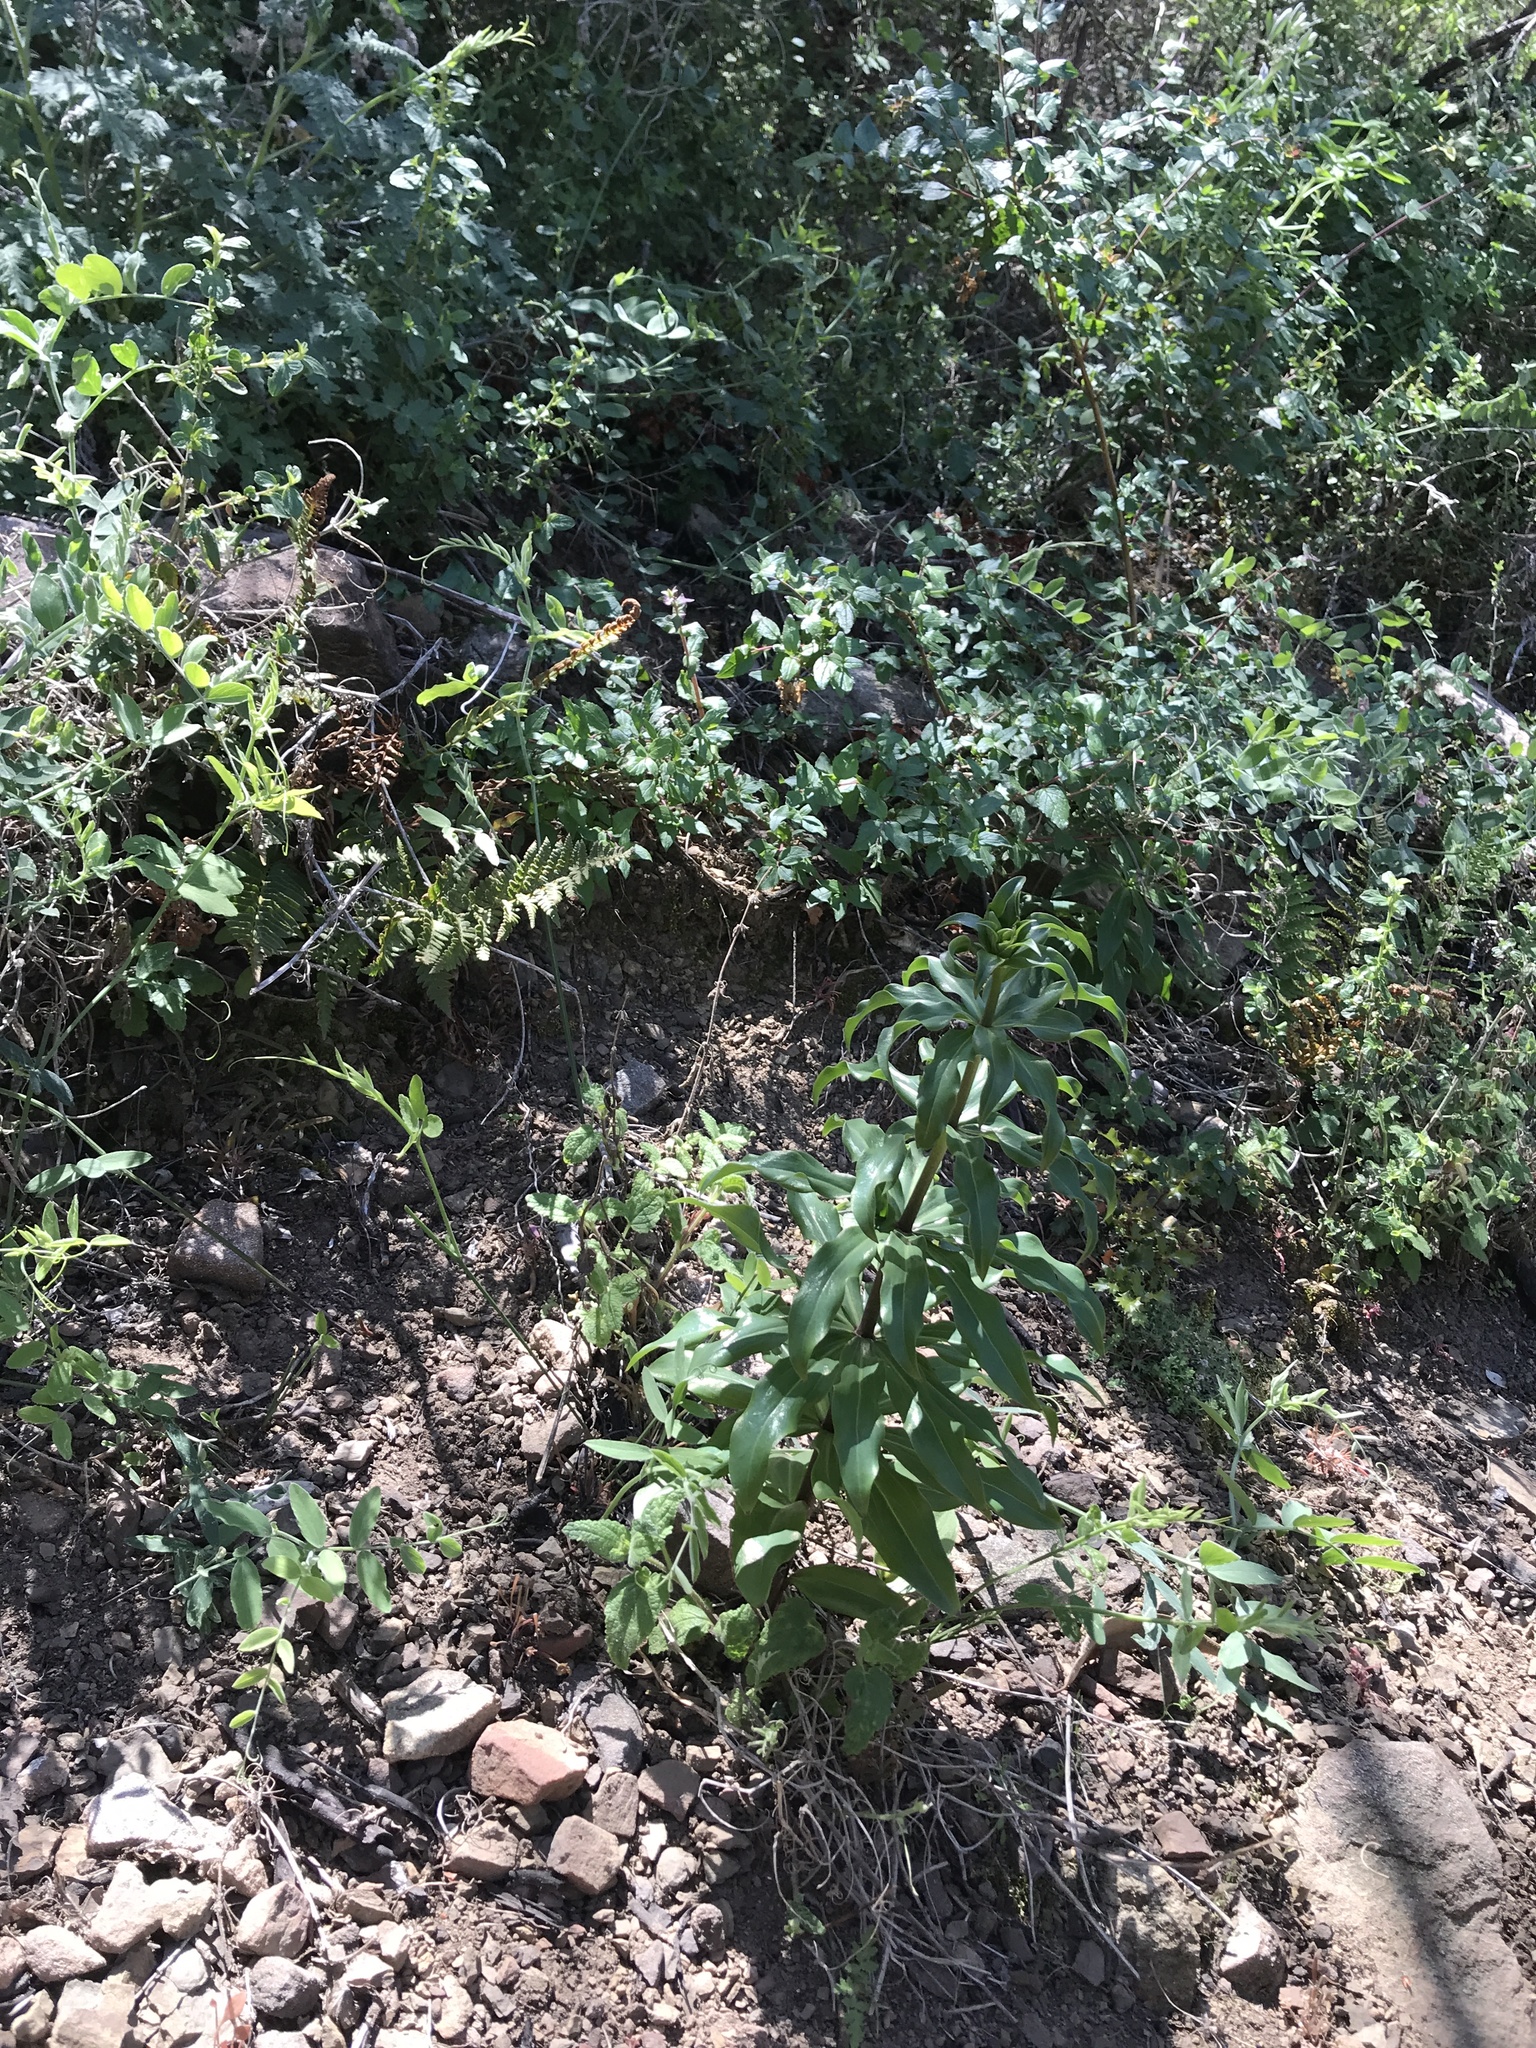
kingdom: Plantae
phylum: Tracheophyta
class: Liliopsida
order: Liliales
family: Liliaceae
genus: Lilium
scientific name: Lilium humboldtii
